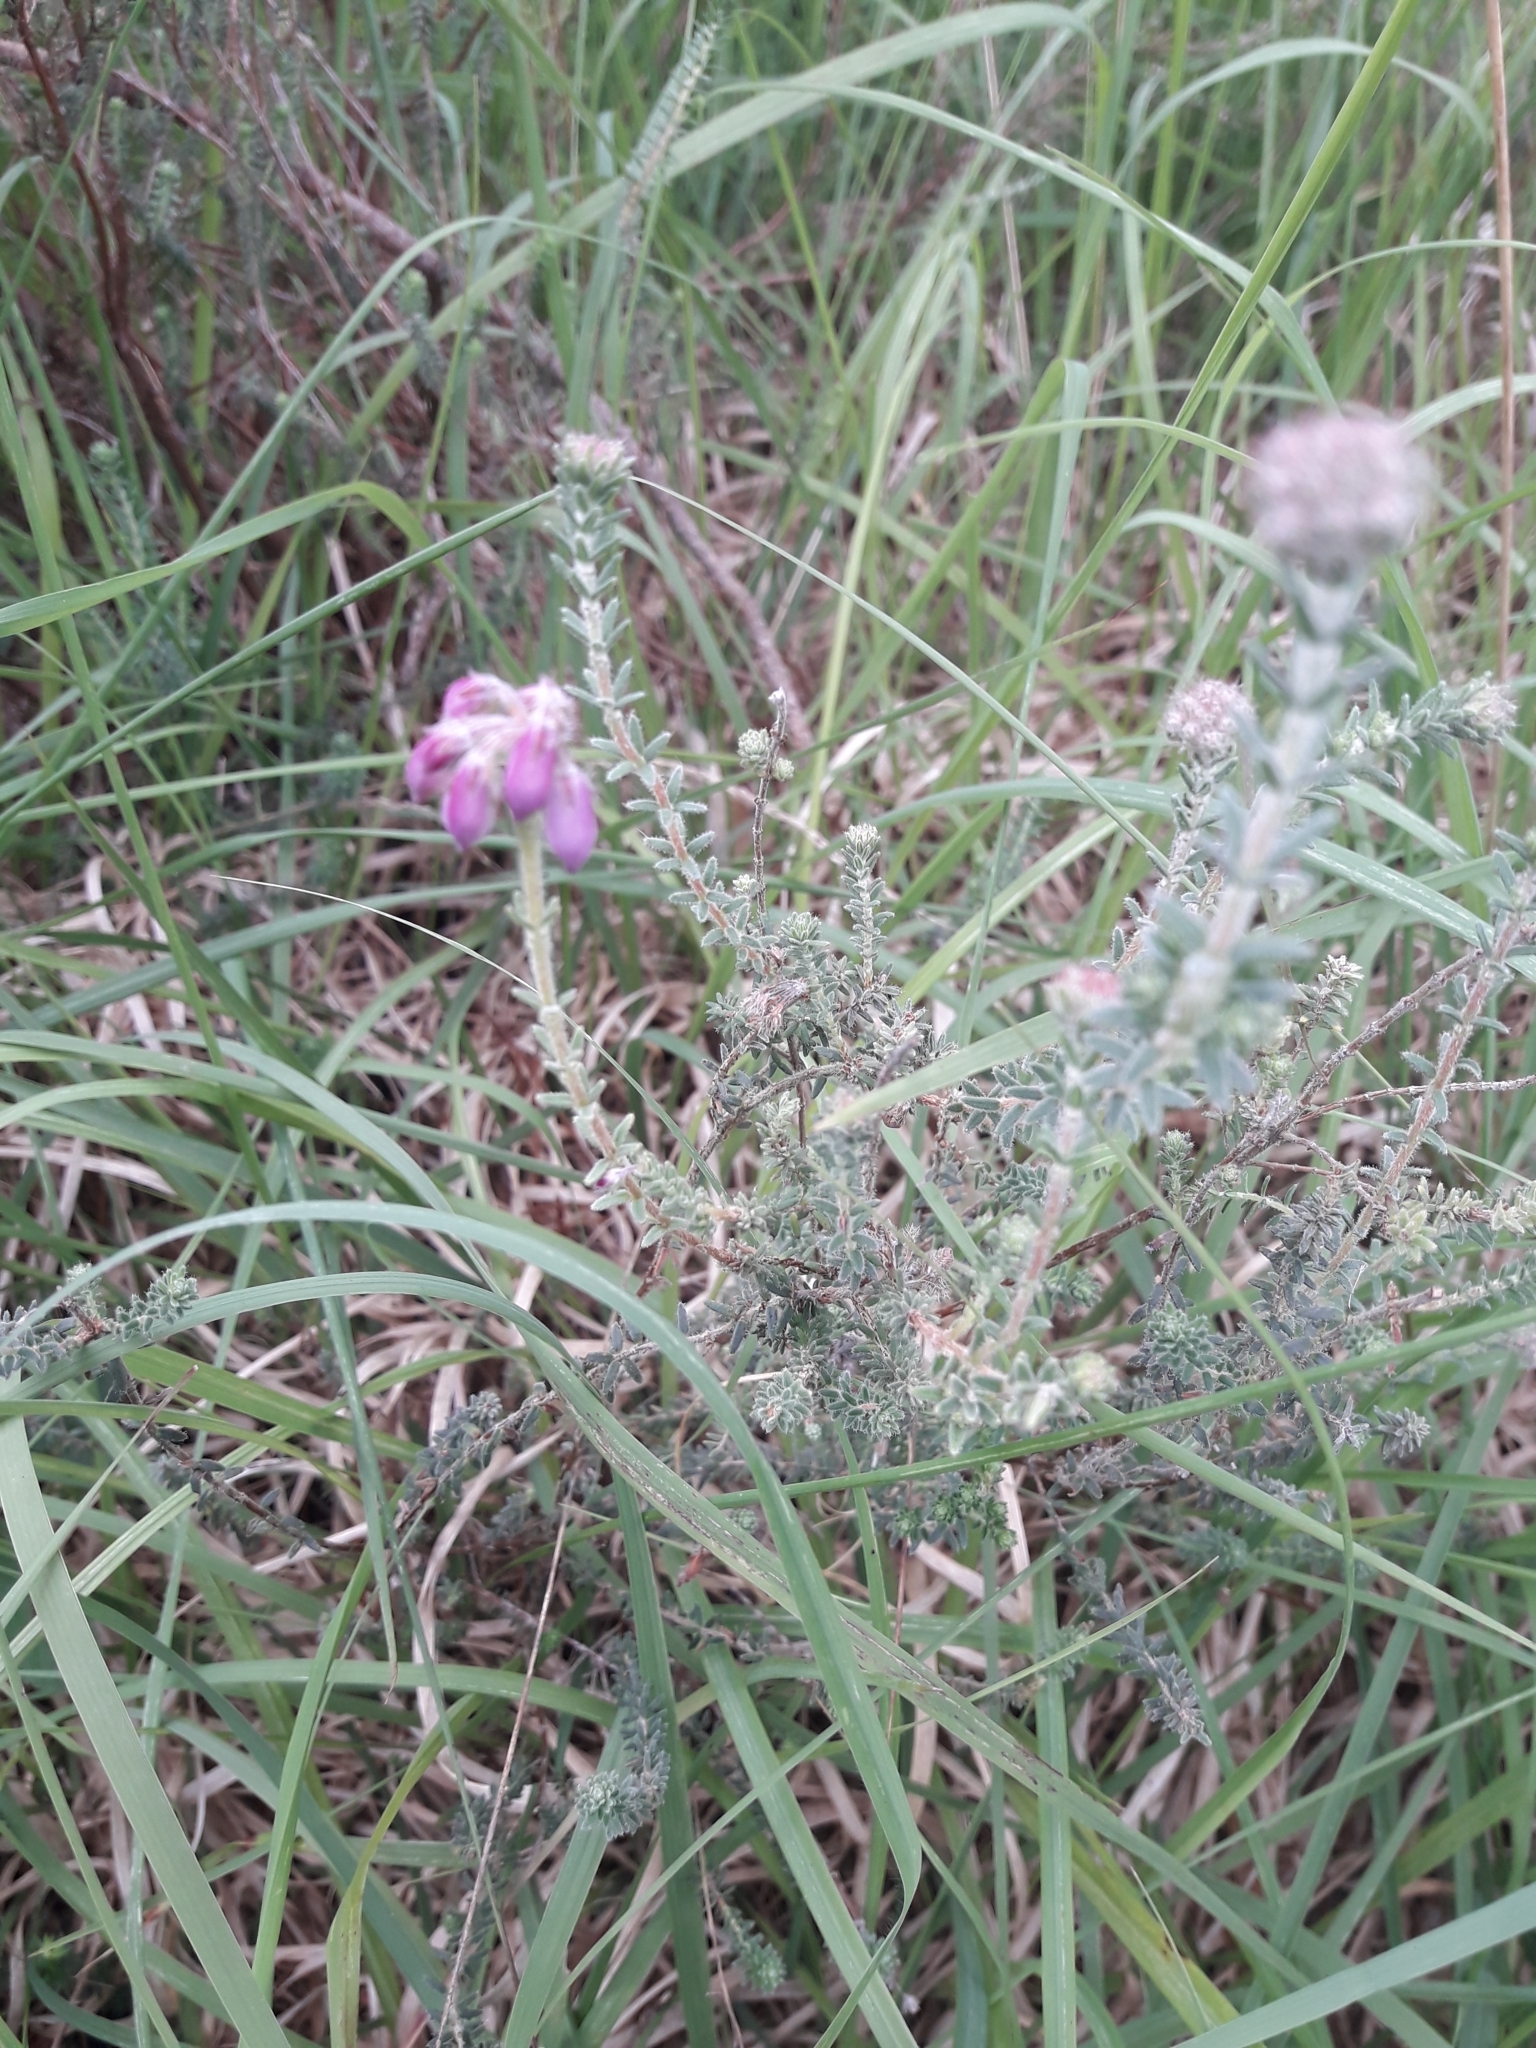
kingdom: Plantae
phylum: Tracheophyta
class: Magnoliopsida
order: Ericales
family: Ericaceae
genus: Erica
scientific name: Erica tetralix
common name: Cross-leaved heath
